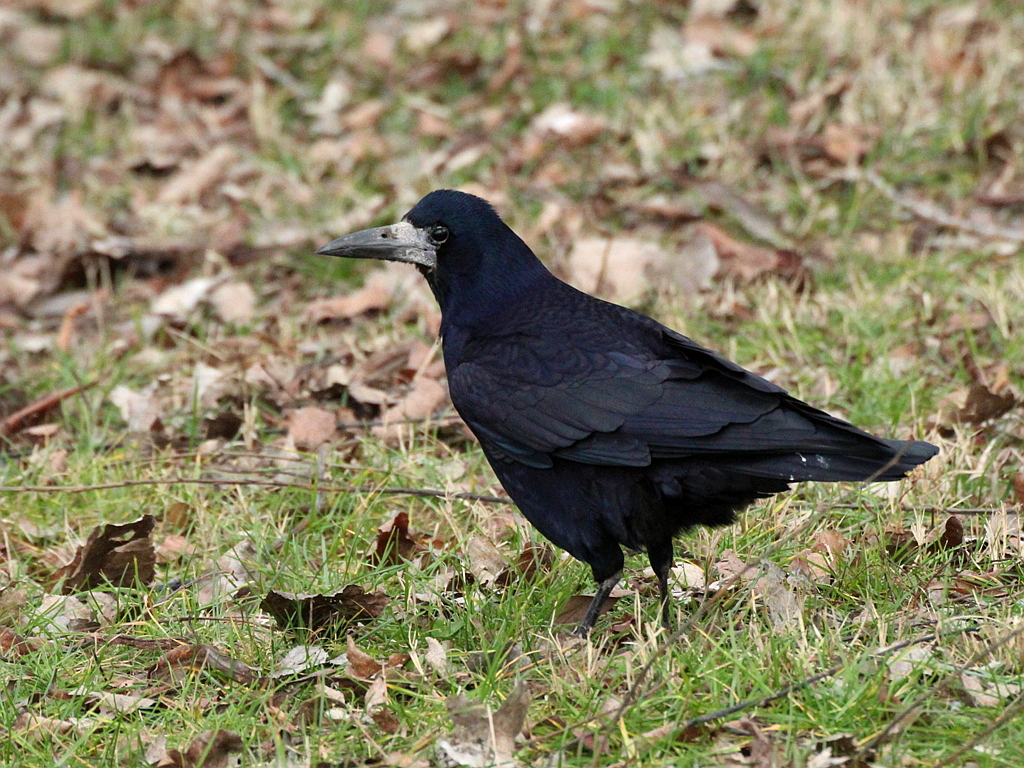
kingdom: Animalia
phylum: Chordata
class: Aves
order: Passeriformes
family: Corvidae
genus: Corvus
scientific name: Corvus frugilegus
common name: Rook
